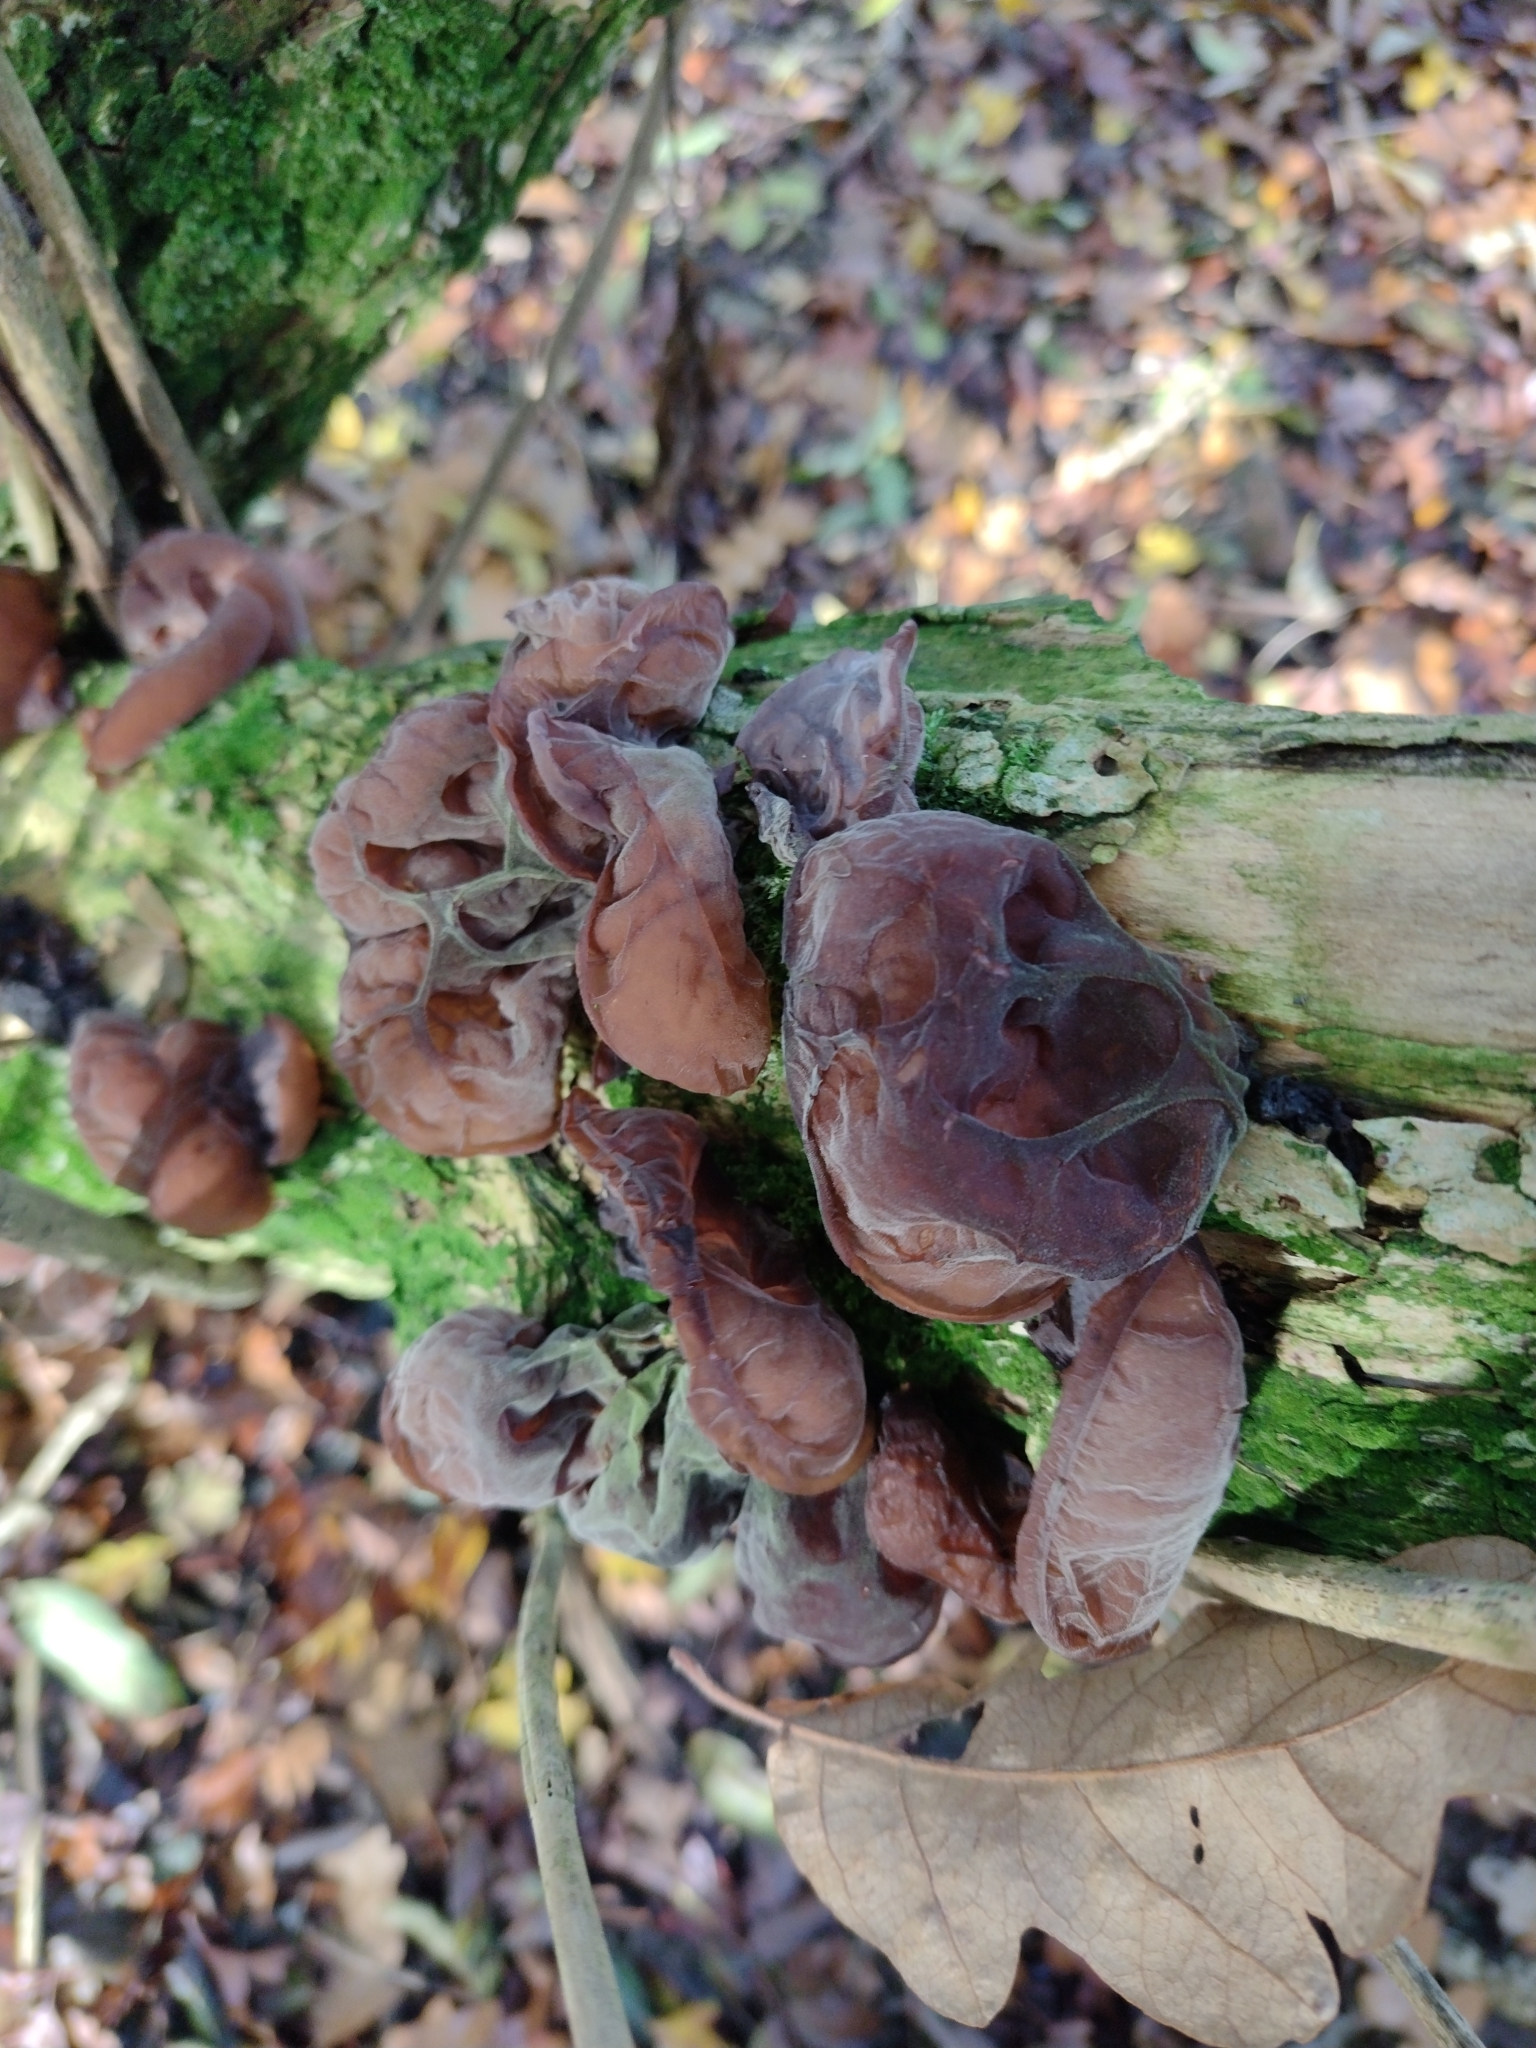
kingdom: Fungi
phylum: Basidiomycota
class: Agaricomycetes
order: Auriculariales
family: Auriculariaceae
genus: Auricularia
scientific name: Auricularia auricula-judae
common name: Jelly ear
